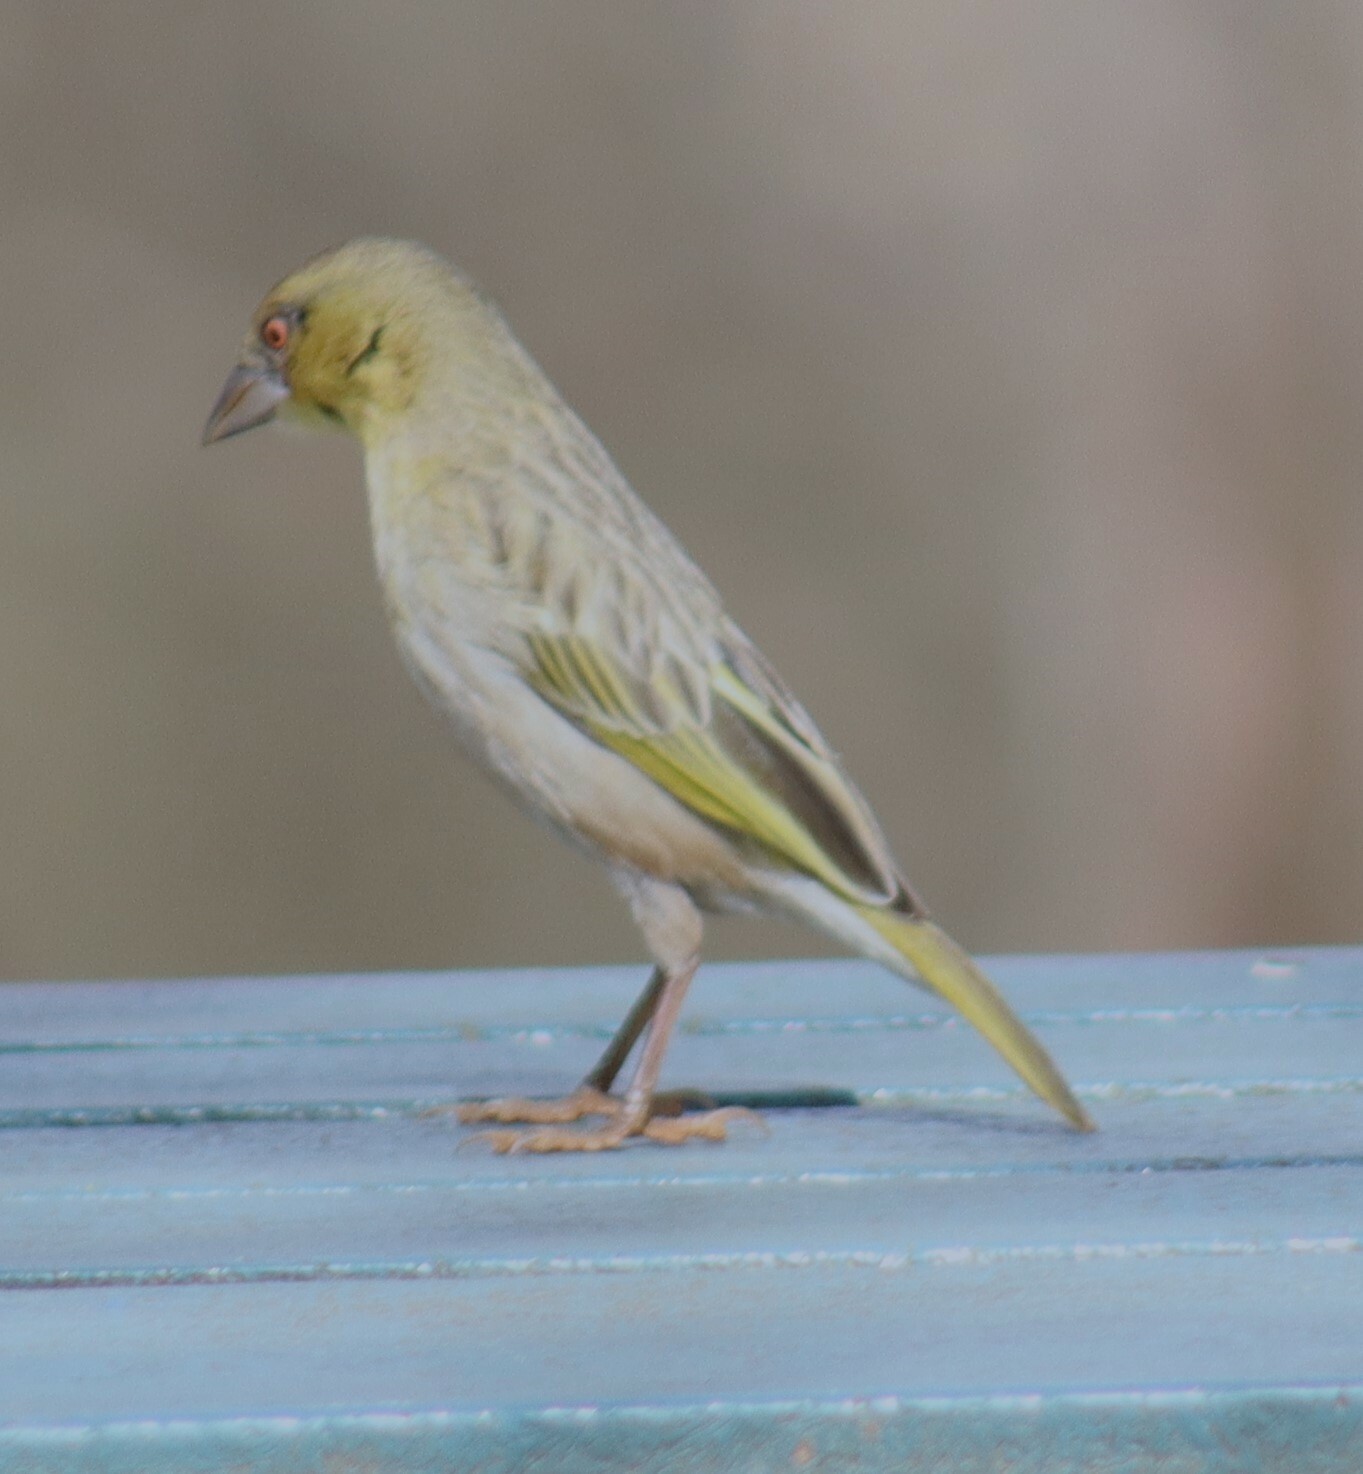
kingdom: Animalia
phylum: Chordata
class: Aves
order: Passeriformes
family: Ploceidae
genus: Ploceus
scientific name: Ploceus velatus
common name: Southern masked weaver
